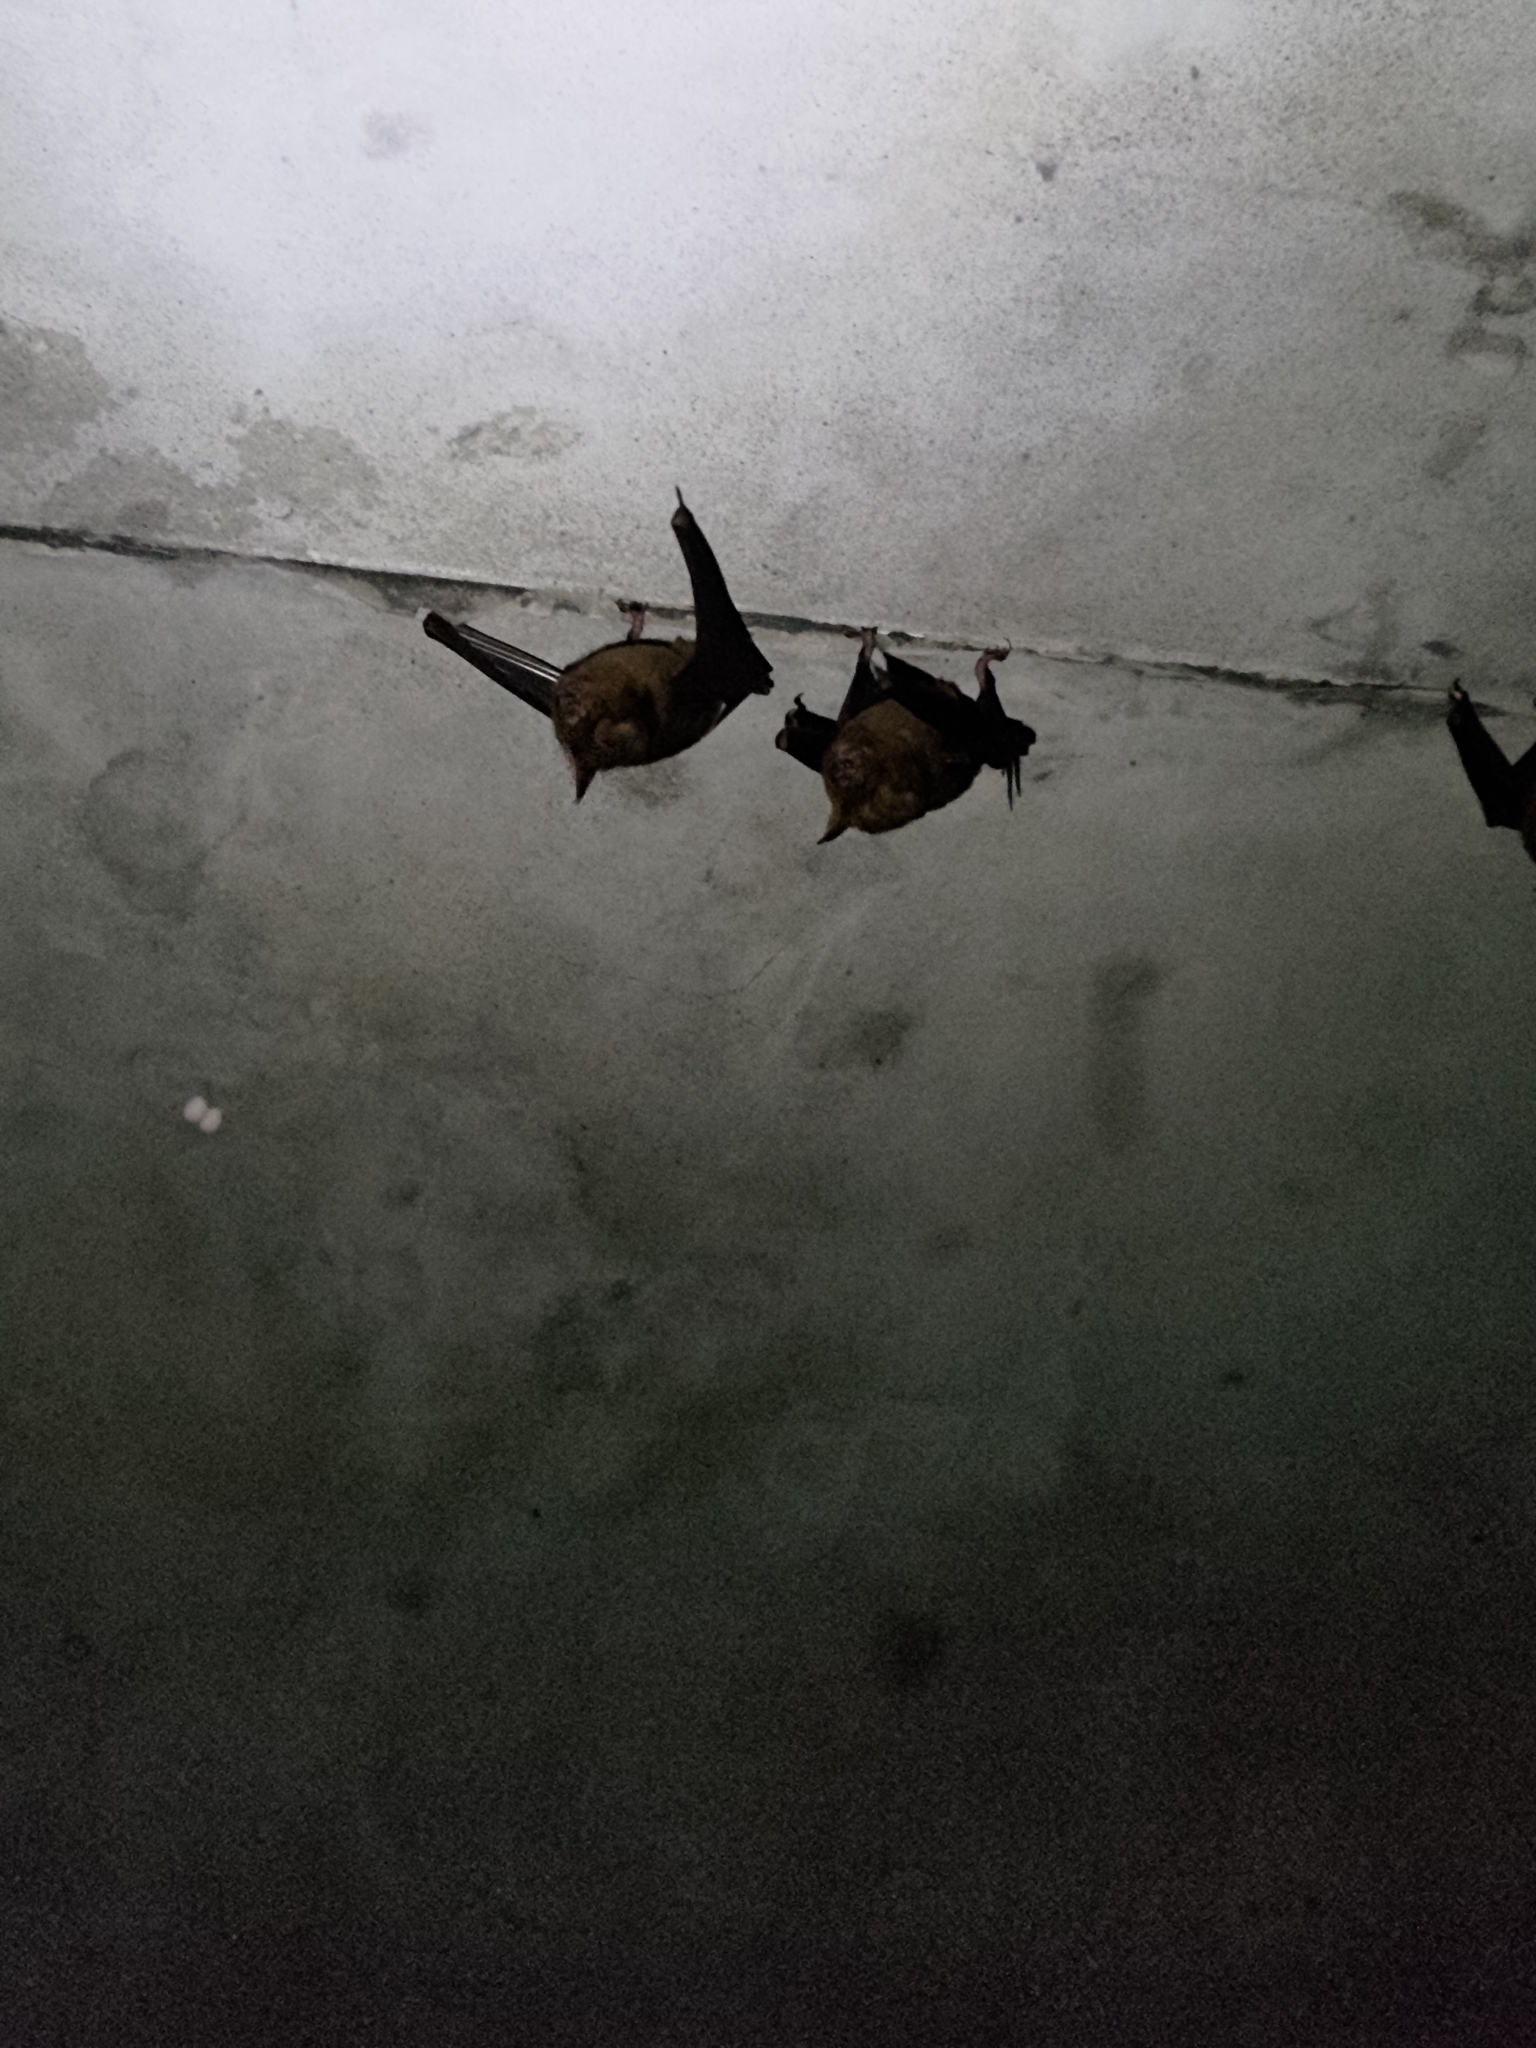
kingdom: Animalia
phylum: Chordata
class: Mammalia
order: Chiroptera
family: Hipposideridae
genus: Hipposideros
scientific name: Hipposideros armiger
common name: Great leaf-nosed bat
